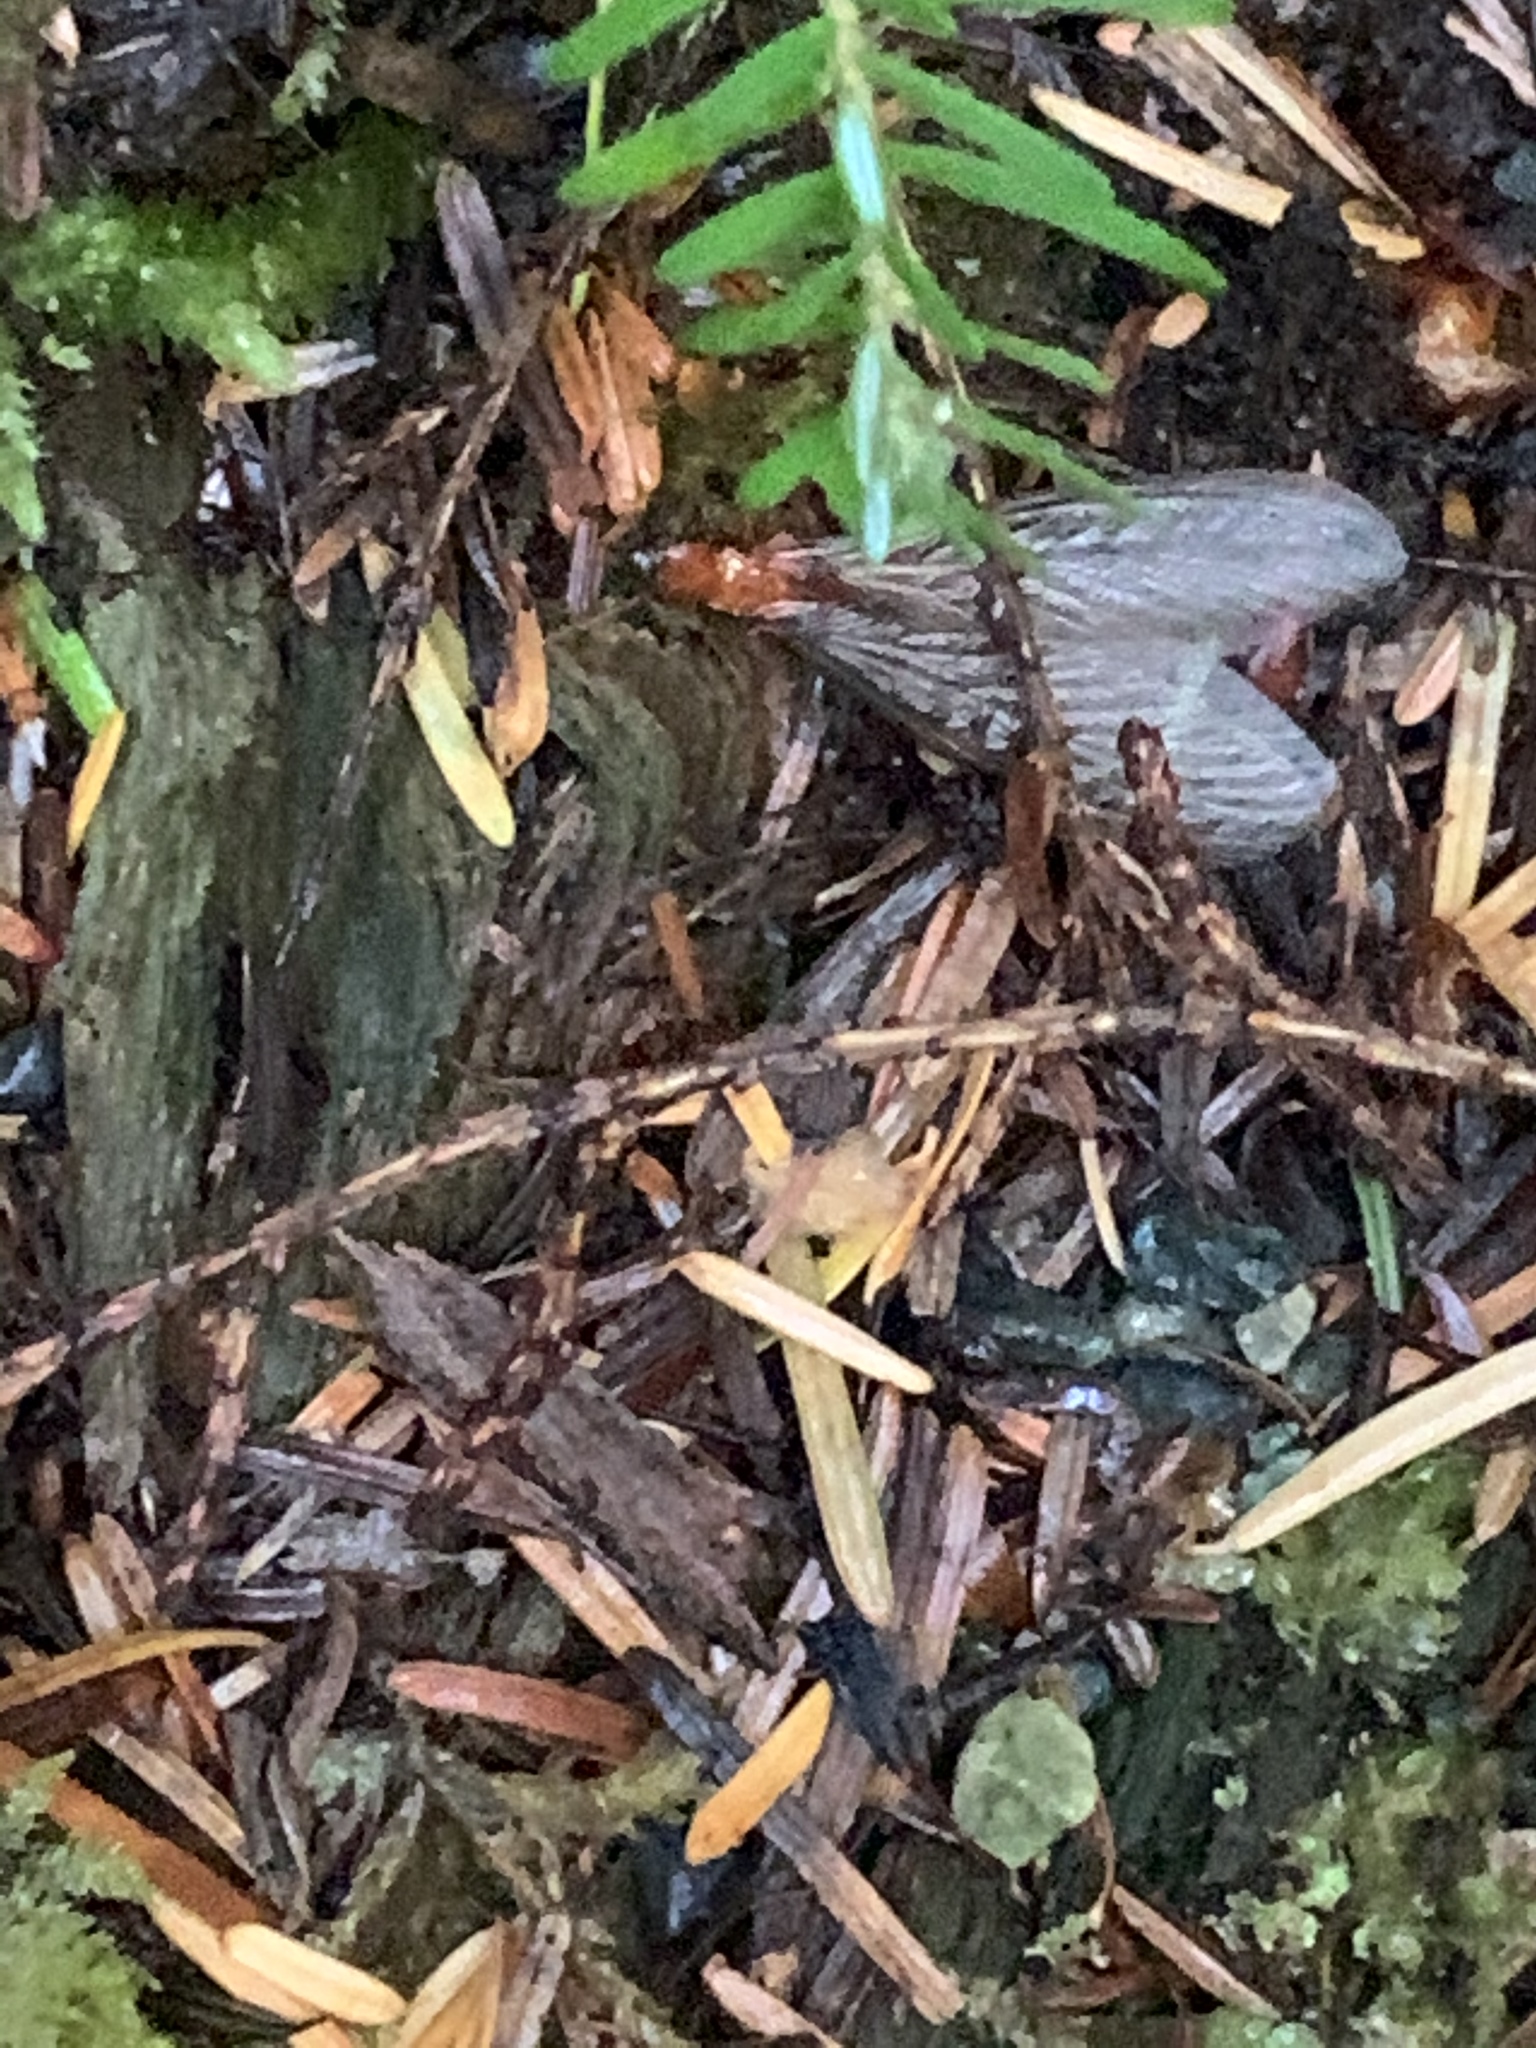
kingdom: Animalia
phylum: Arthropoda
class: Insecta
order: Blattodea
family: Archotermopsidae
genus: Zootermopsis
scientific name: Zootermopsis angusticollis
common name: Rottenwood termite
